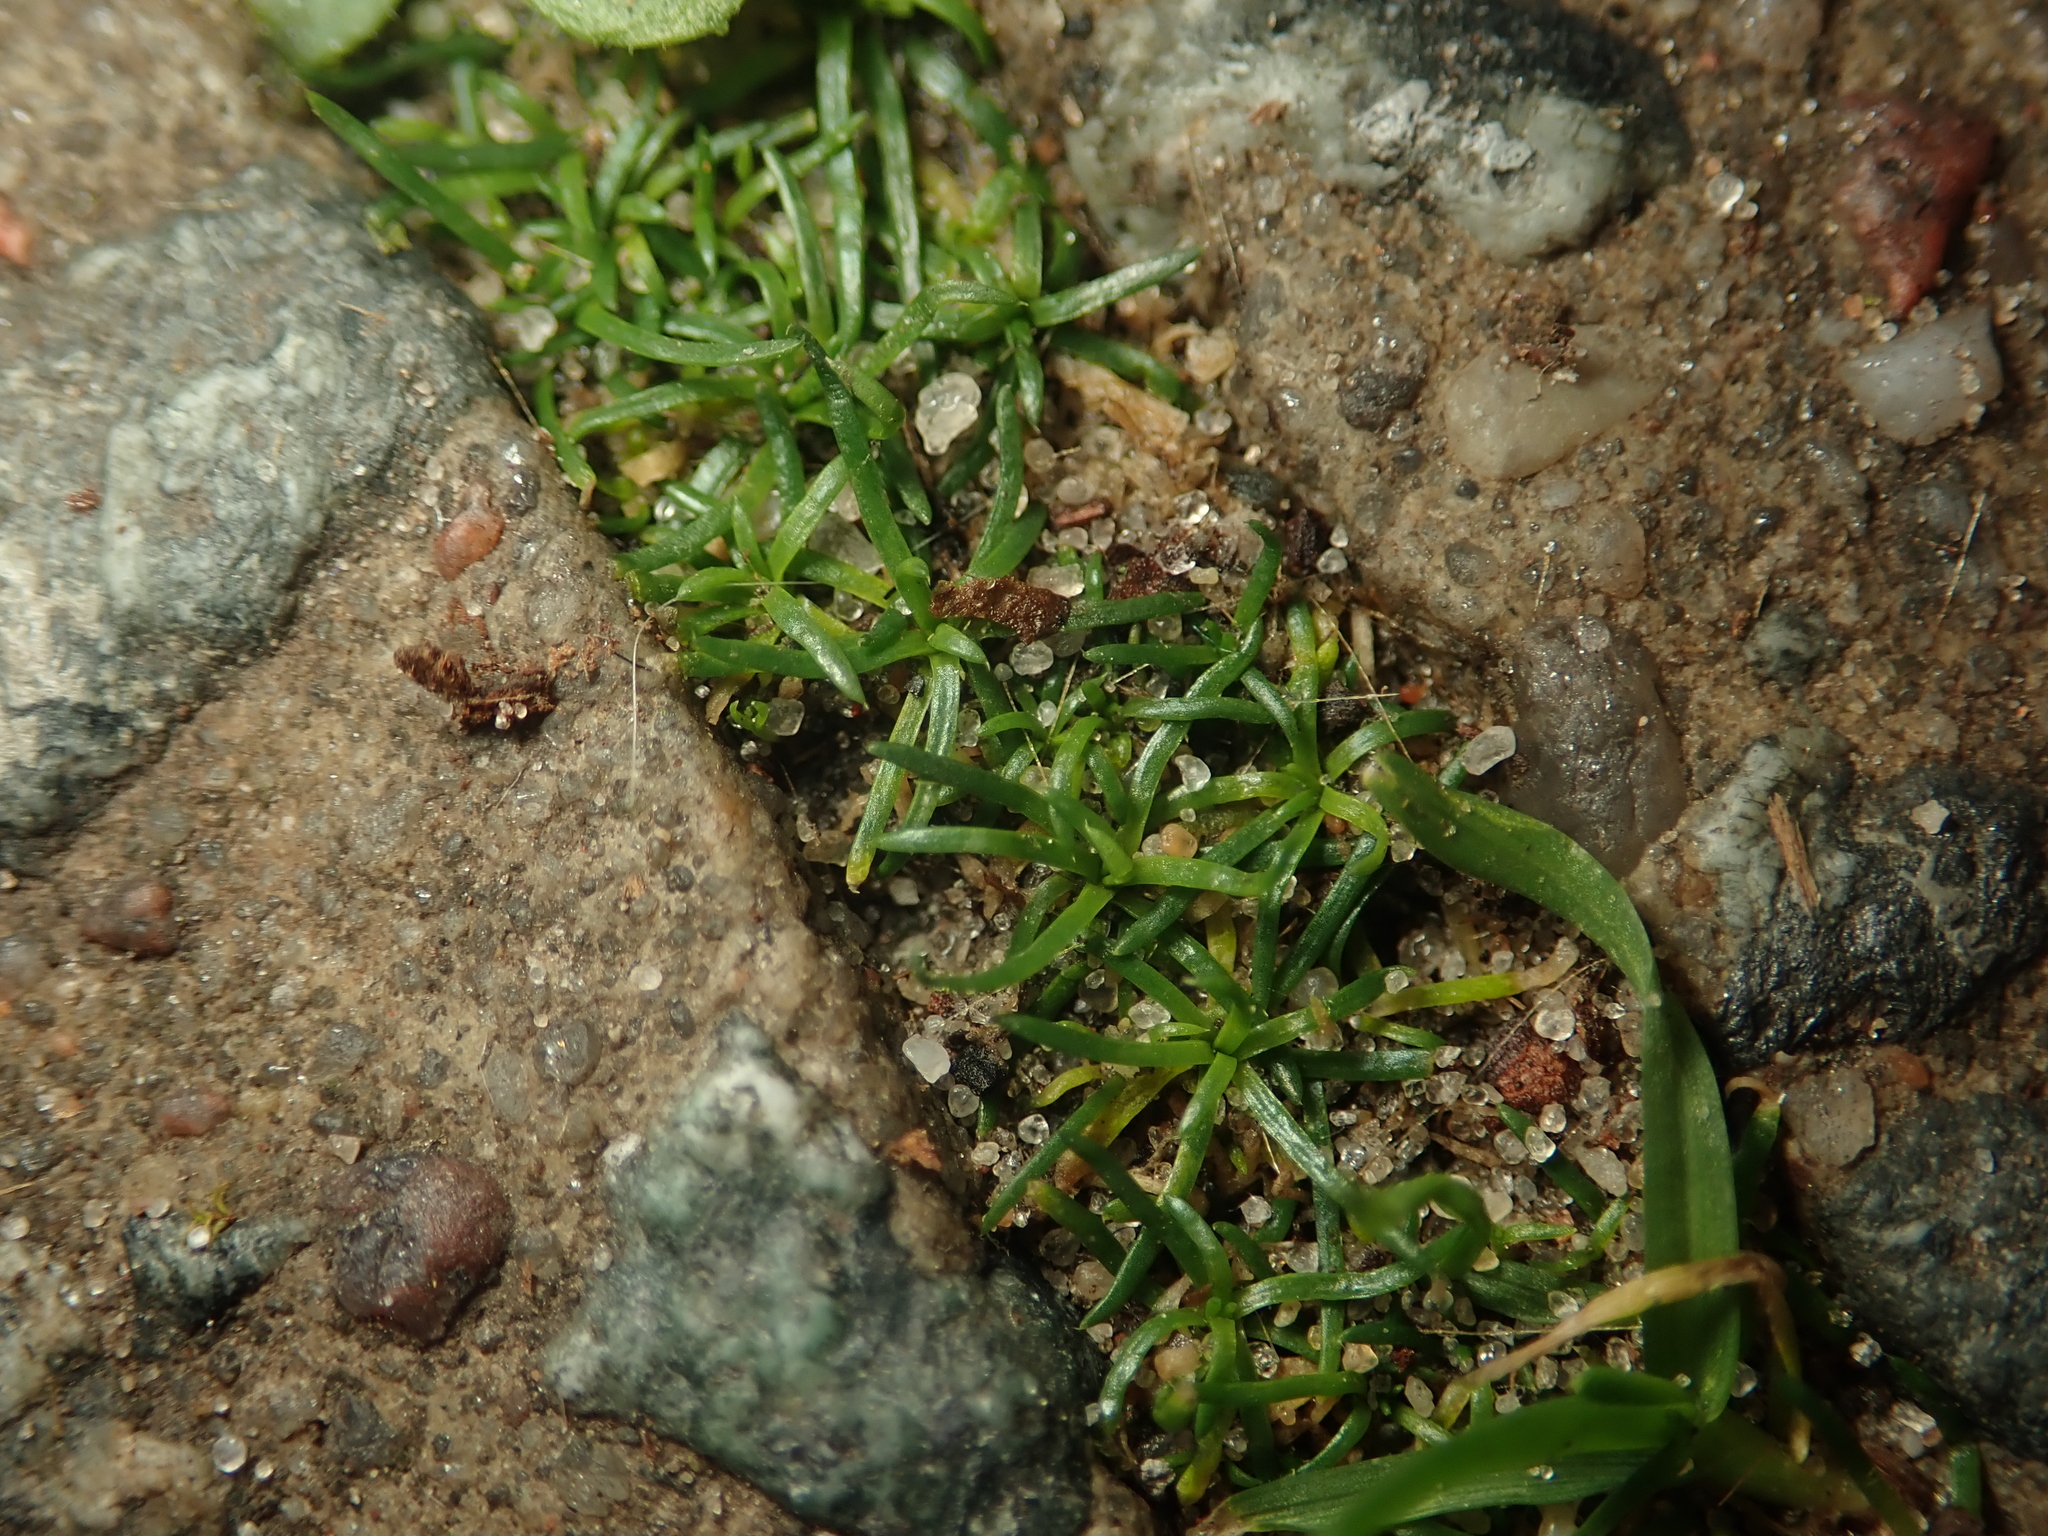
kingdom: Plantae
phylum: Tracheophyta
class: Magnoliopsida
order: Caryophyllales
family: Caryophyllaceae
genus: Sagina
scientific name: Sagina procumbens
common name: Procumbent pearlwort
